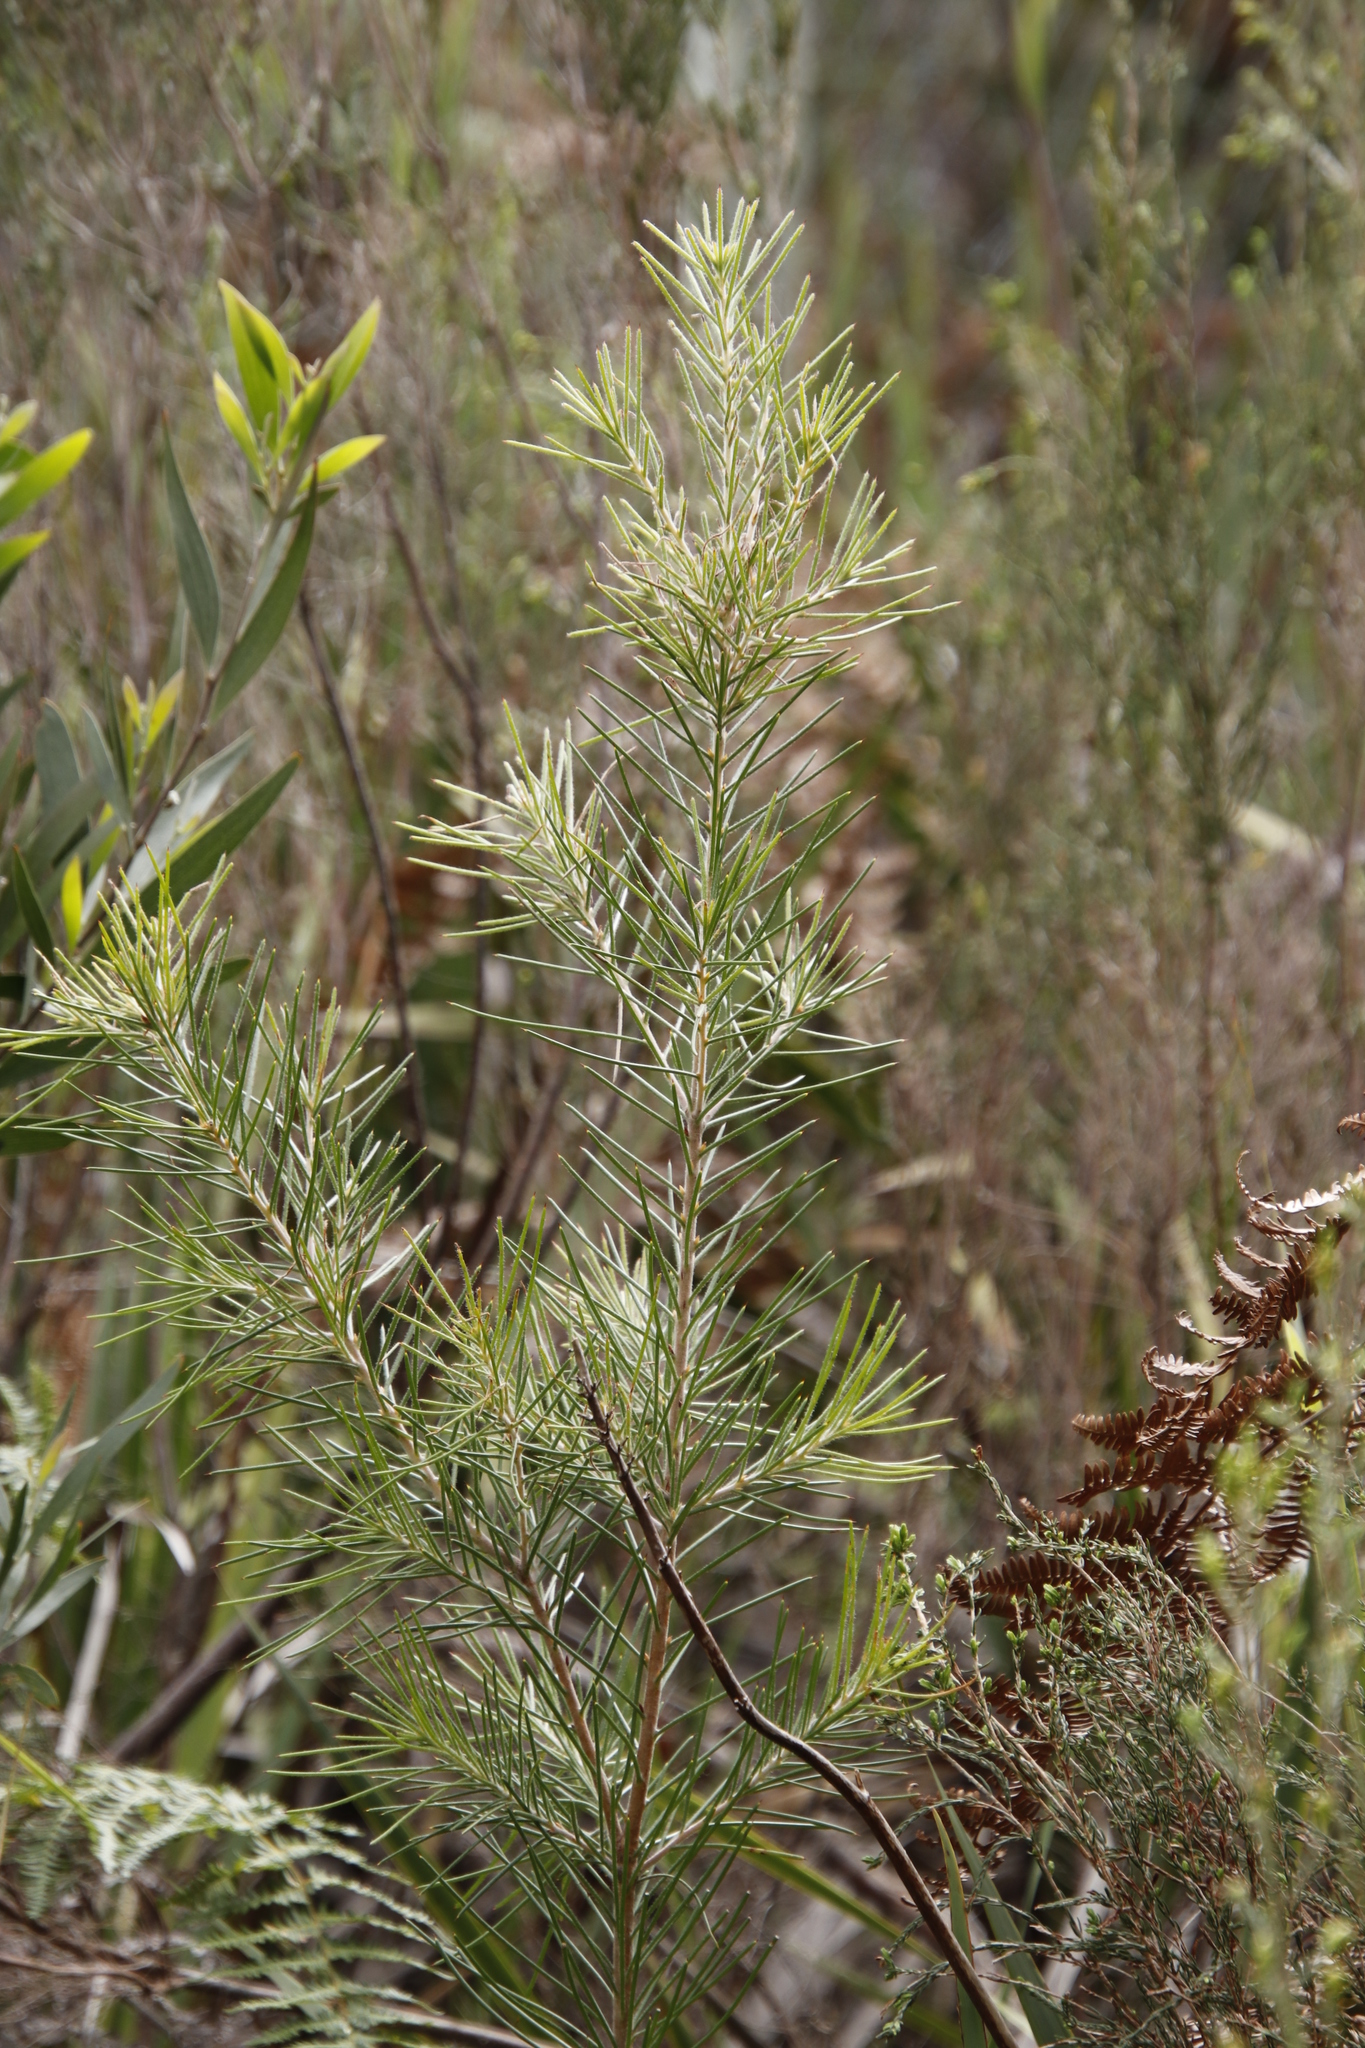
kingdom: Plantae
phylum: Tracheophyta
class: Magnoliopsida
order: Proteales
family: Proteaceae
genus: Hakea
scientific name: Hakea sericea
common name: Needle bush
